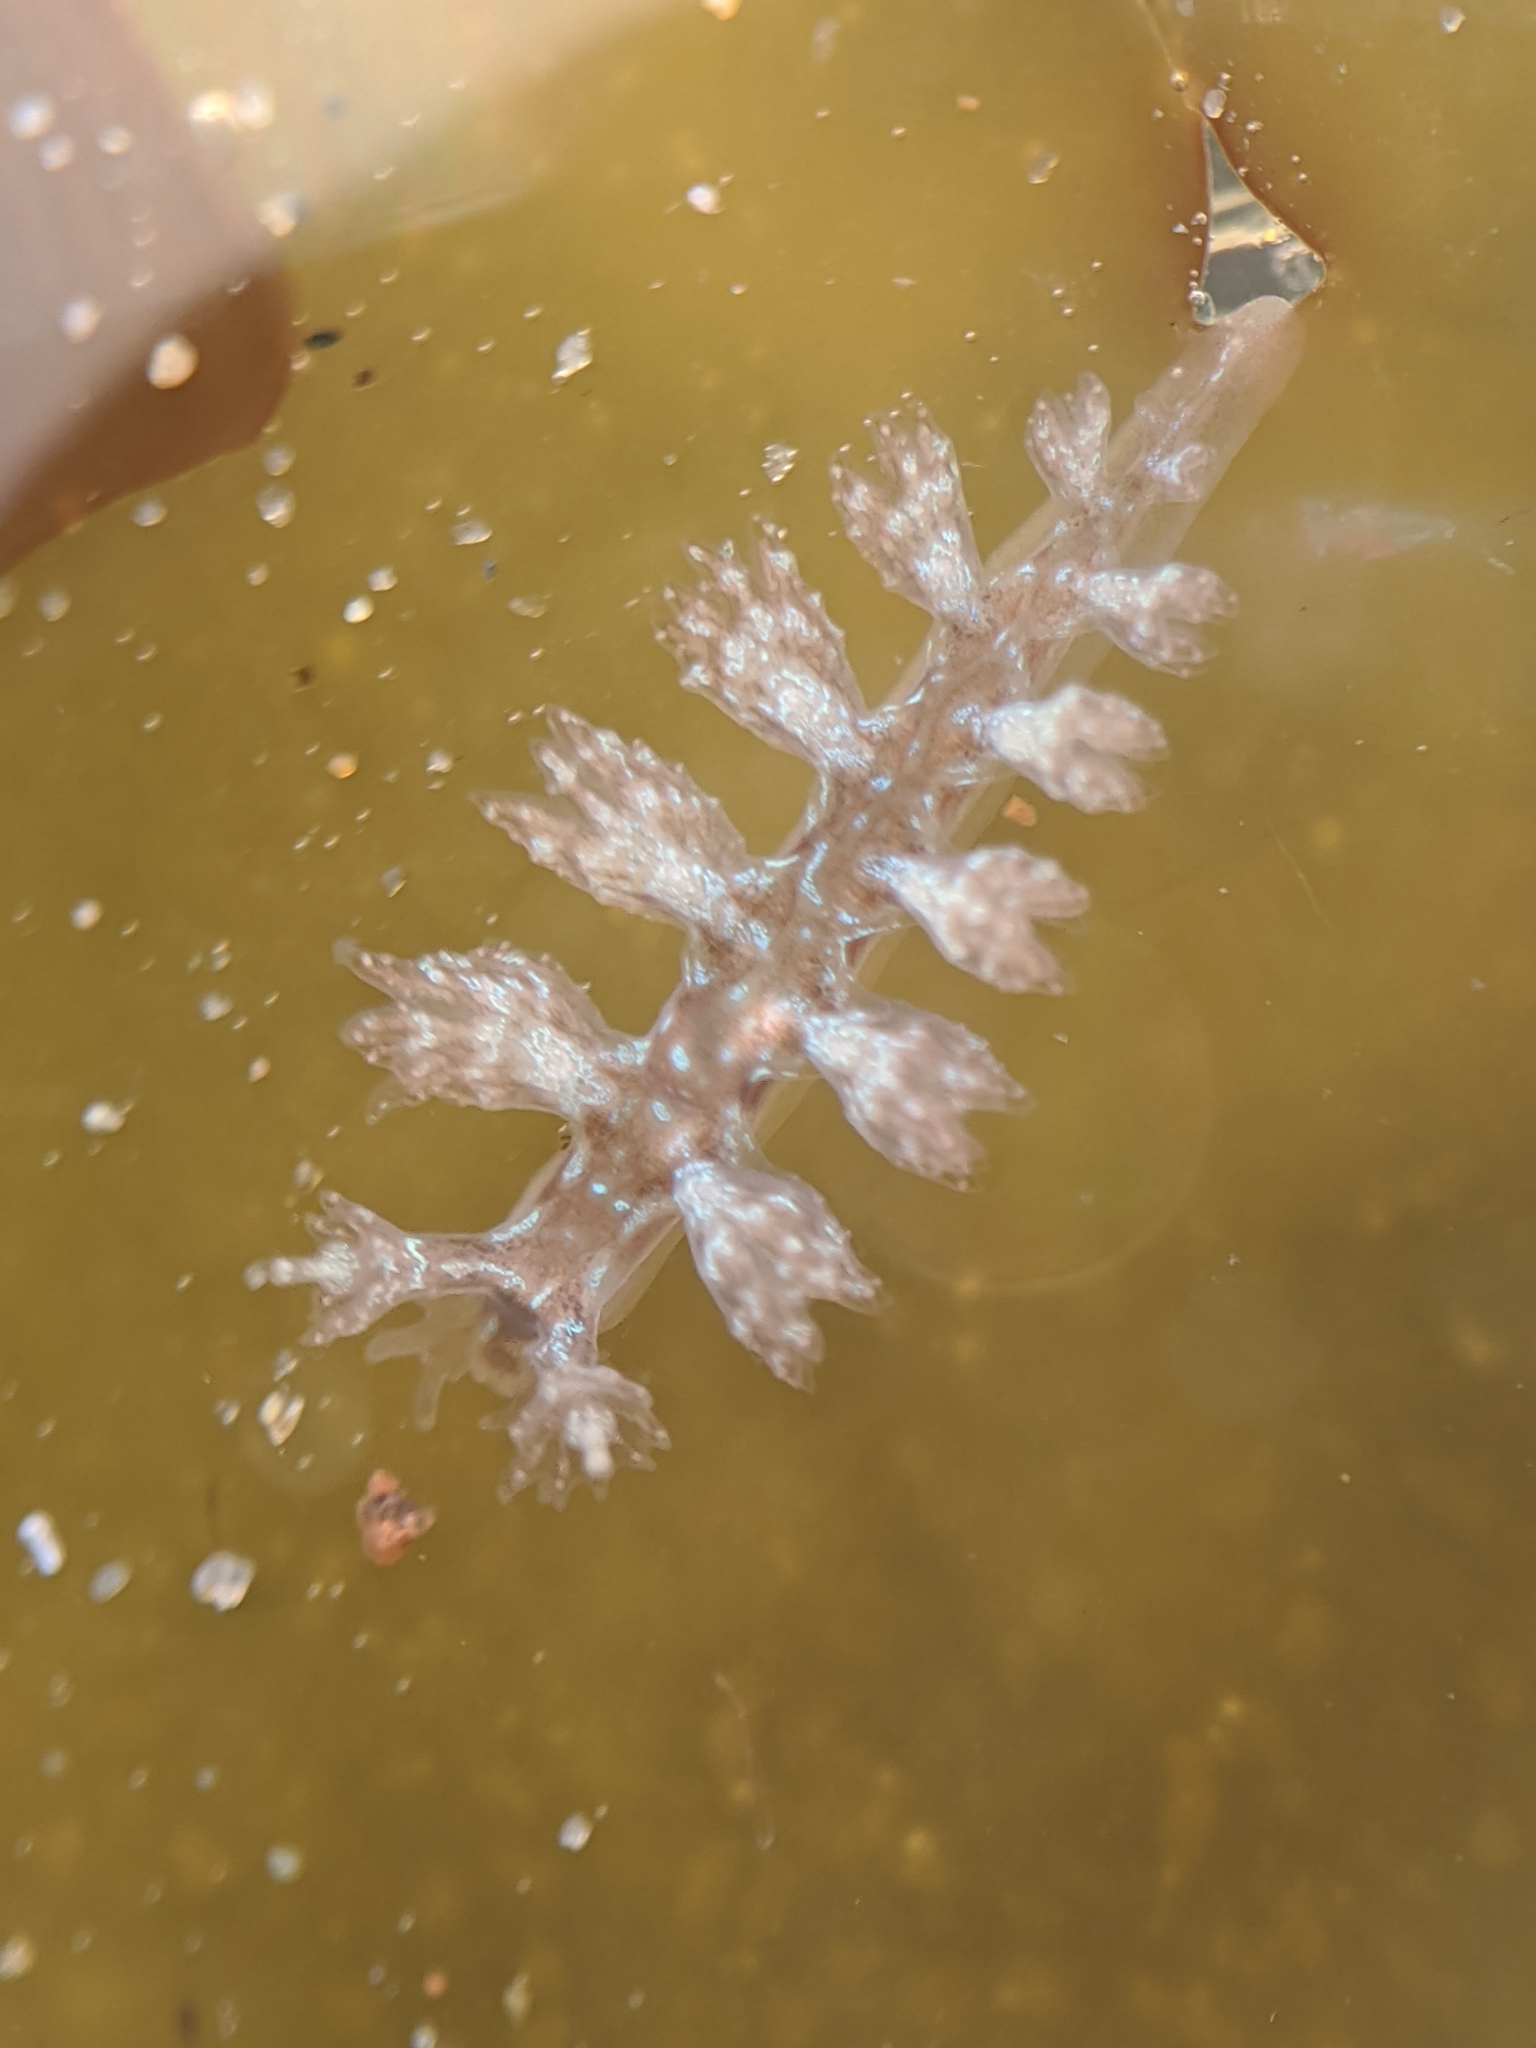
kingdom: Animalia
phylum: Mollusca
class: Gastropoda
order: Nudibranchia
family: Hancockiidae
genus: Hancockia
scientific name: Hancockia californica
